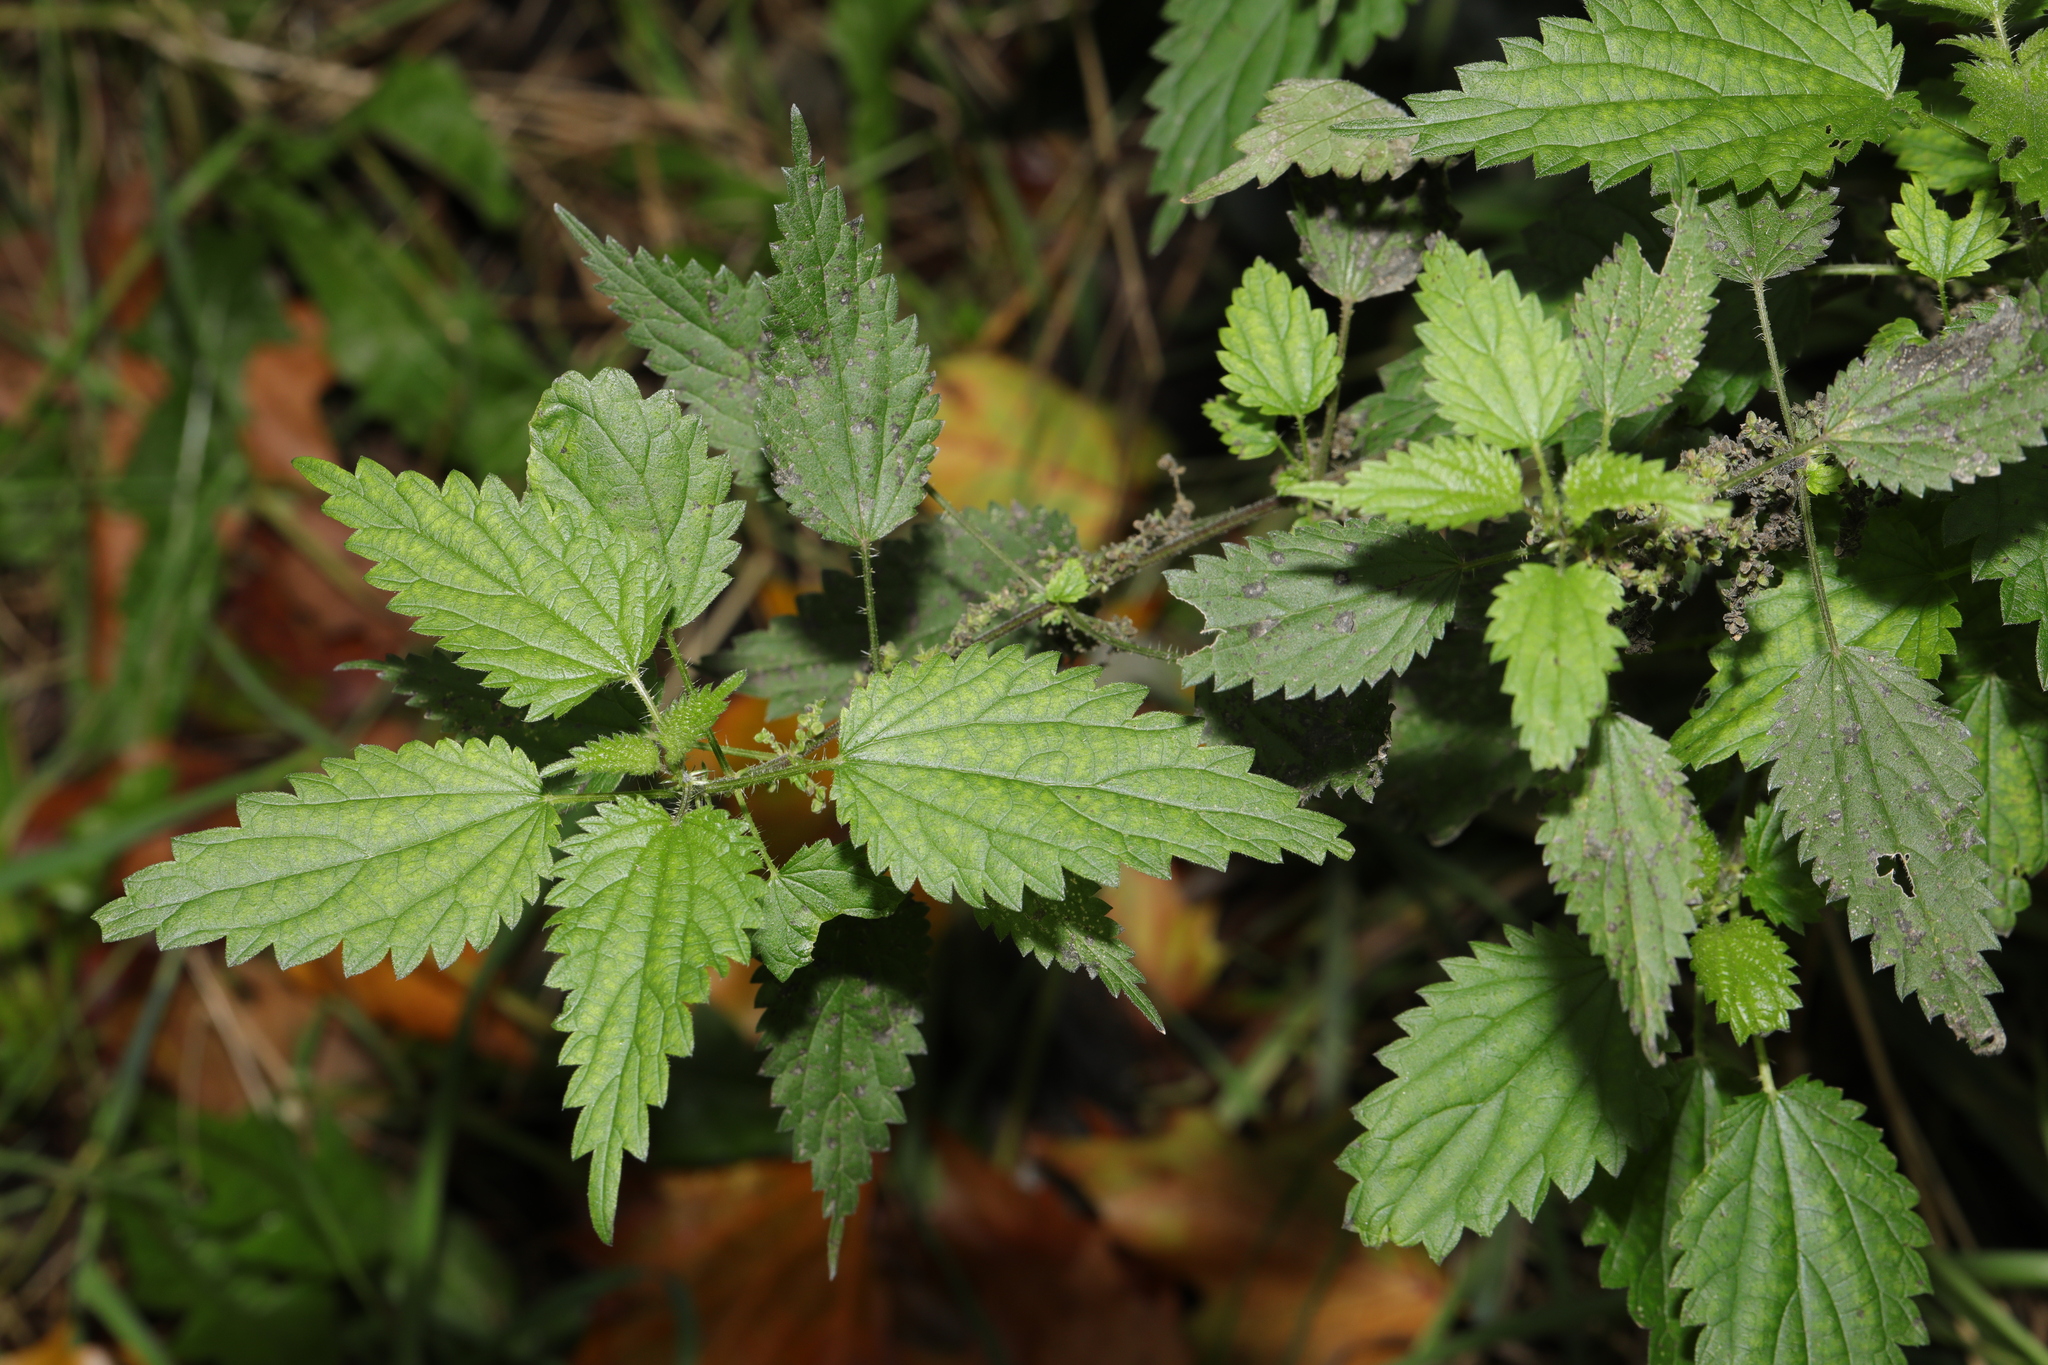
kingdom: Plantae
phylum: Tracheophyta
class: Magnoliopsida
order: Rosales
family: Urticaceae
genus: Urtica
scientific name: Urtica dioica
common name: Common nettle
